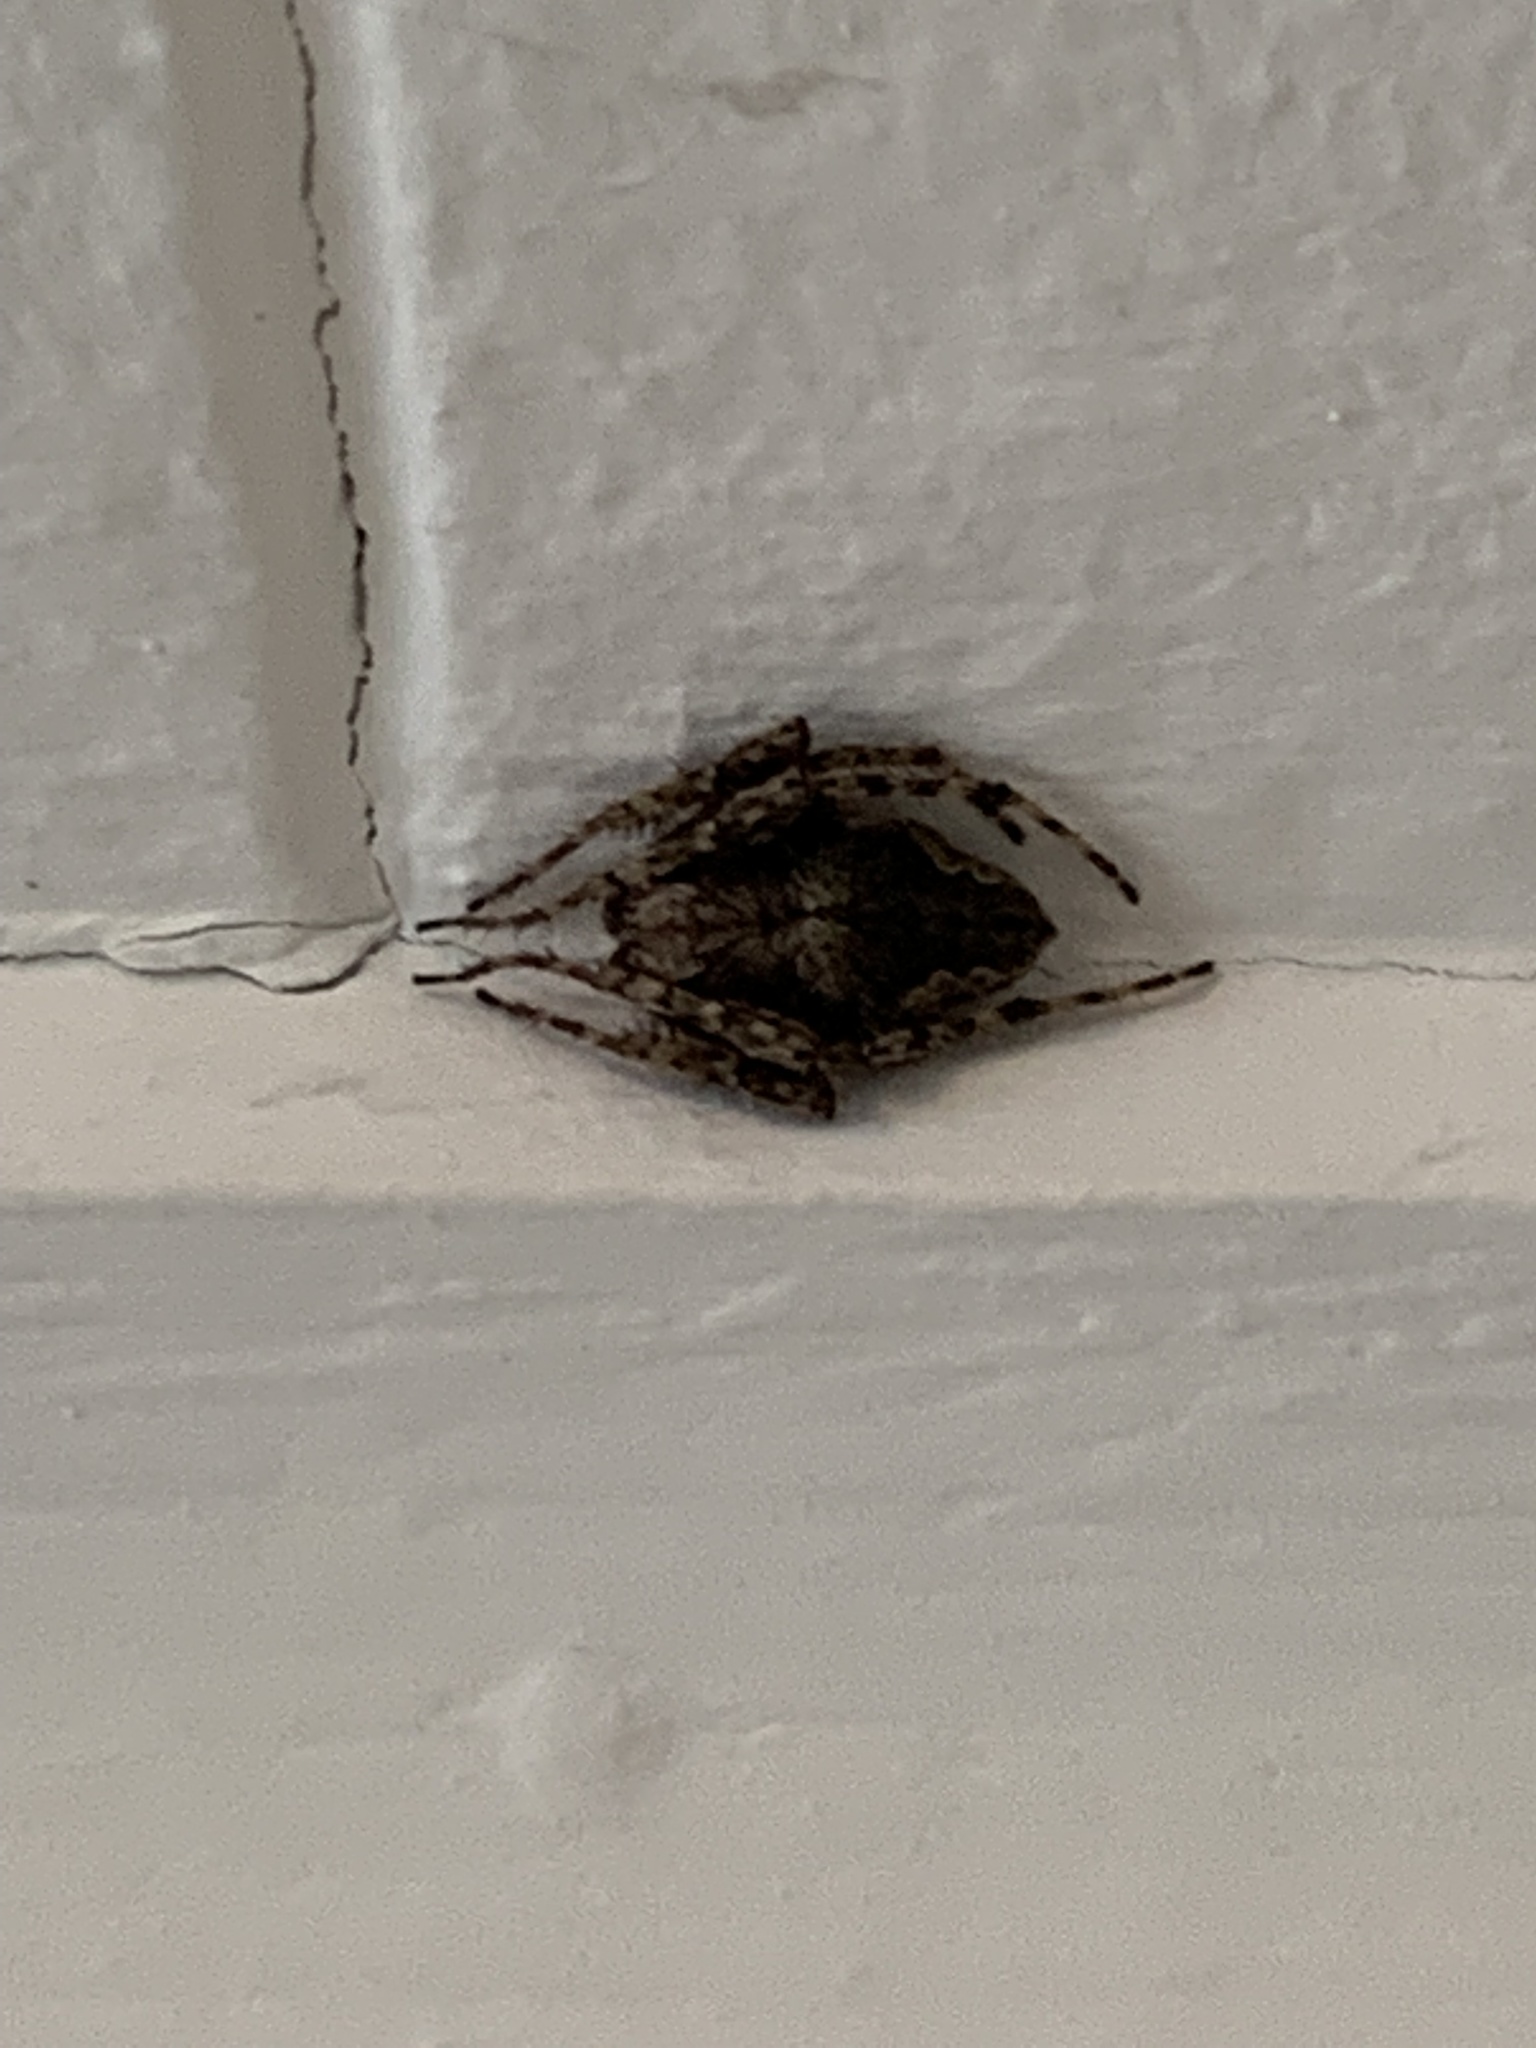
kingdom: Animalia
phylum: Arthropoda
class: Arachnida
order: Araneae
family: Araneidae
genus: Eriophora
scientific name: Eriophora pustulosa
